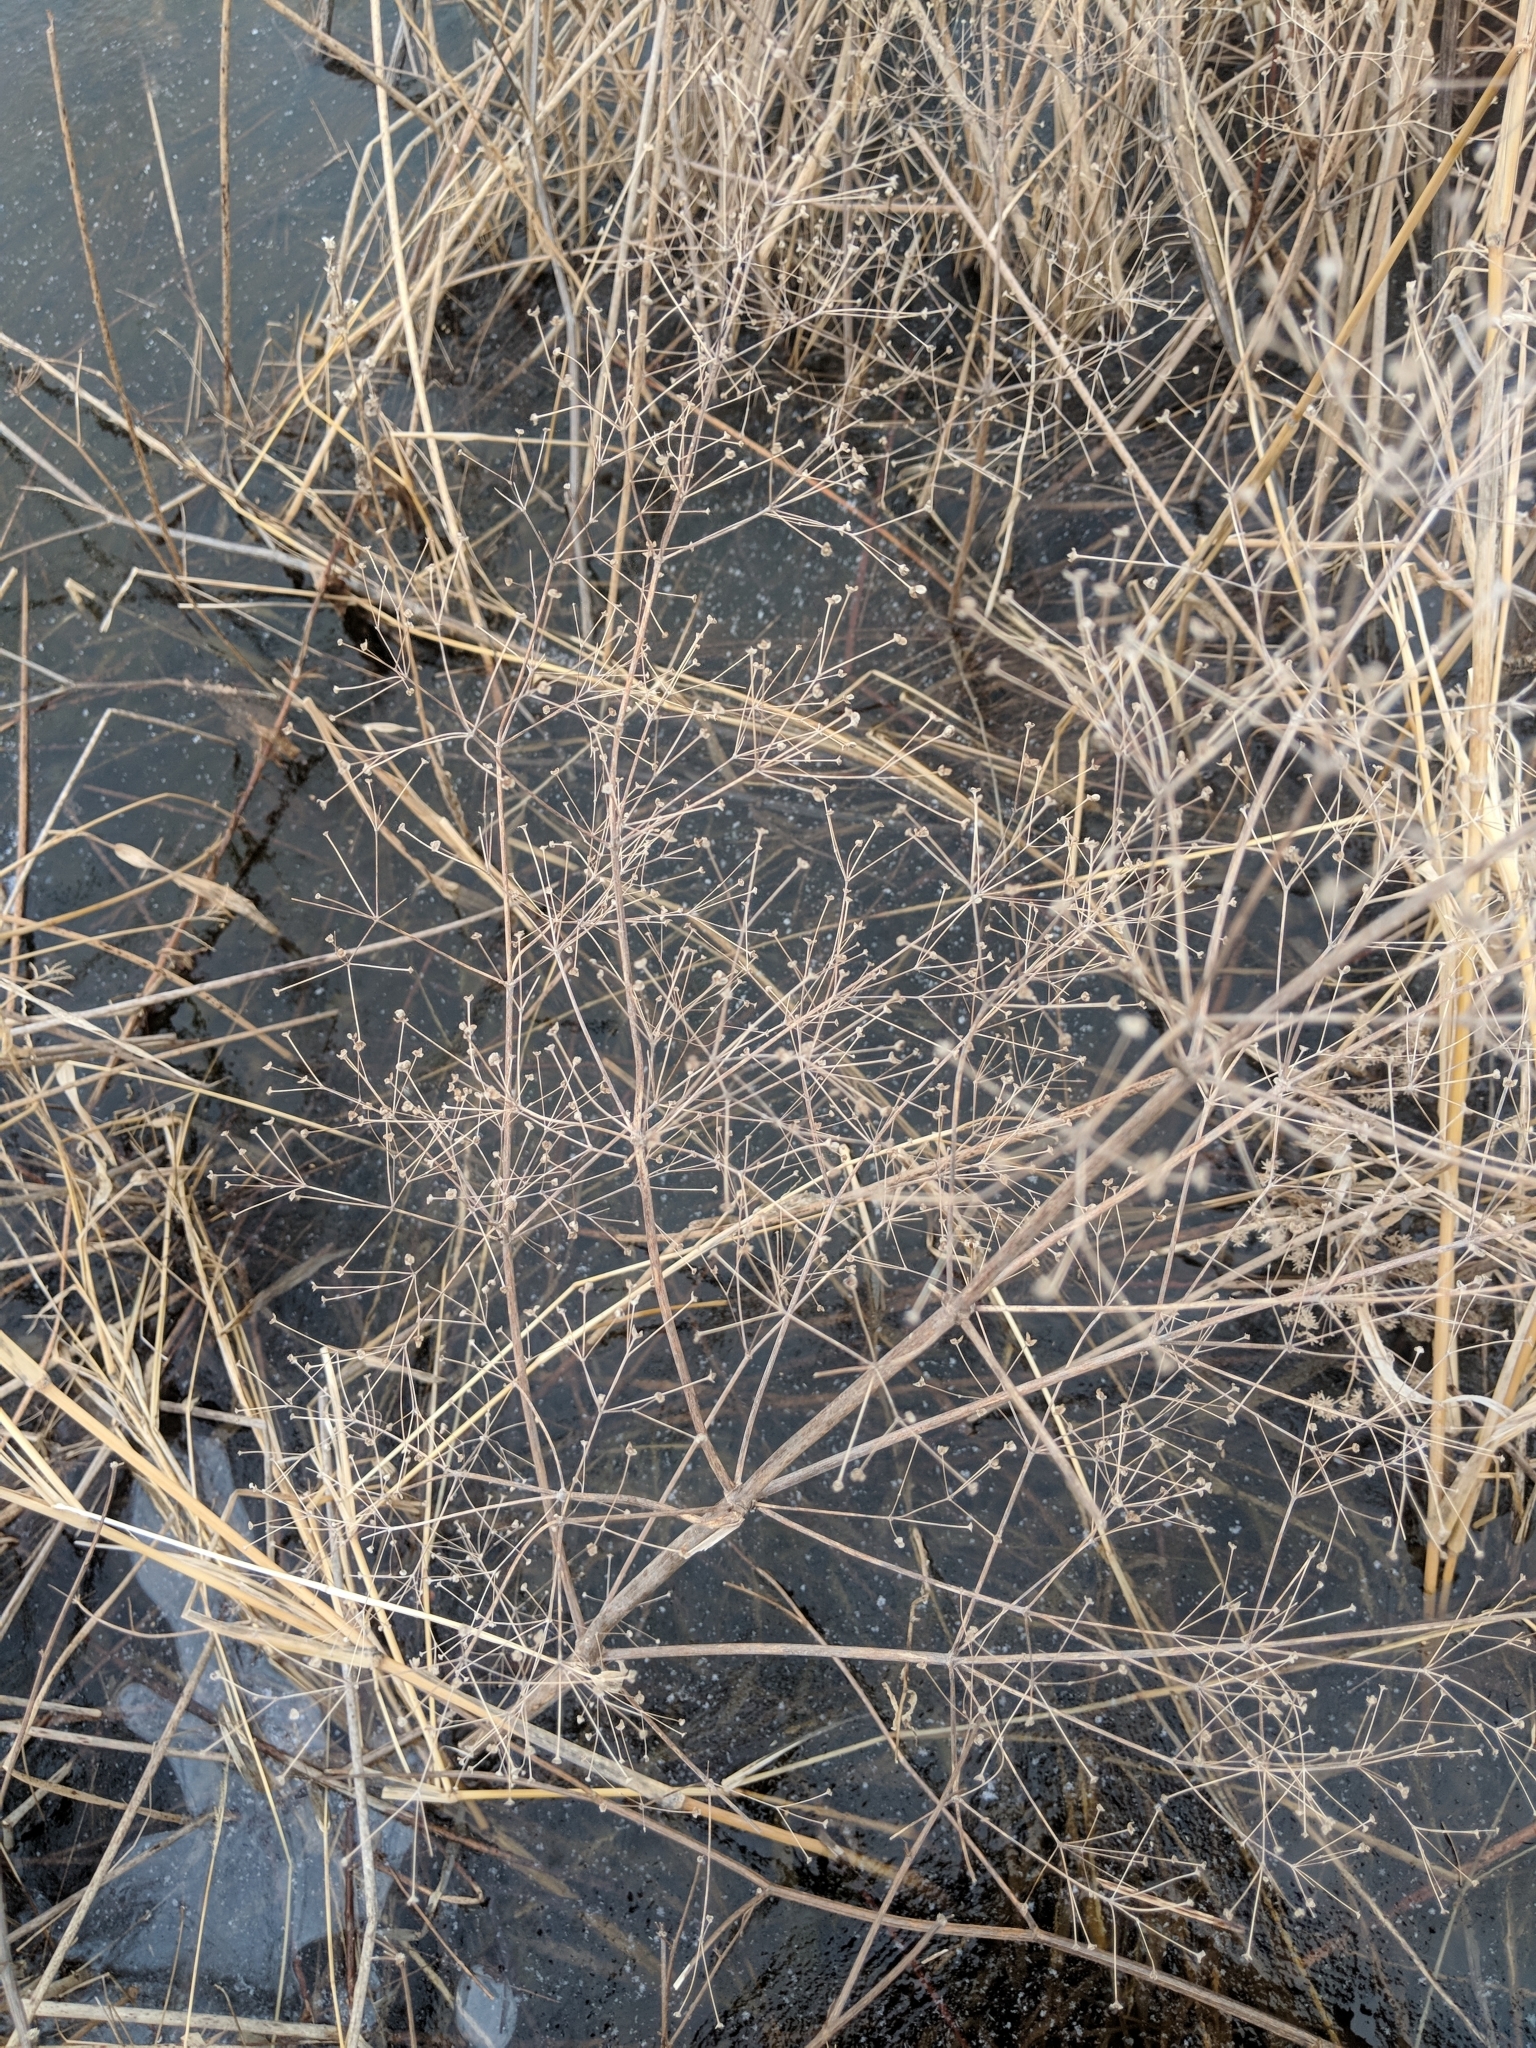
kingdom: Plantae
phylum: Tracheophyta
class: Liliopsida
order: Alismatales
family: Alismataceae
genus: Alisma
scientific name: Alisma
